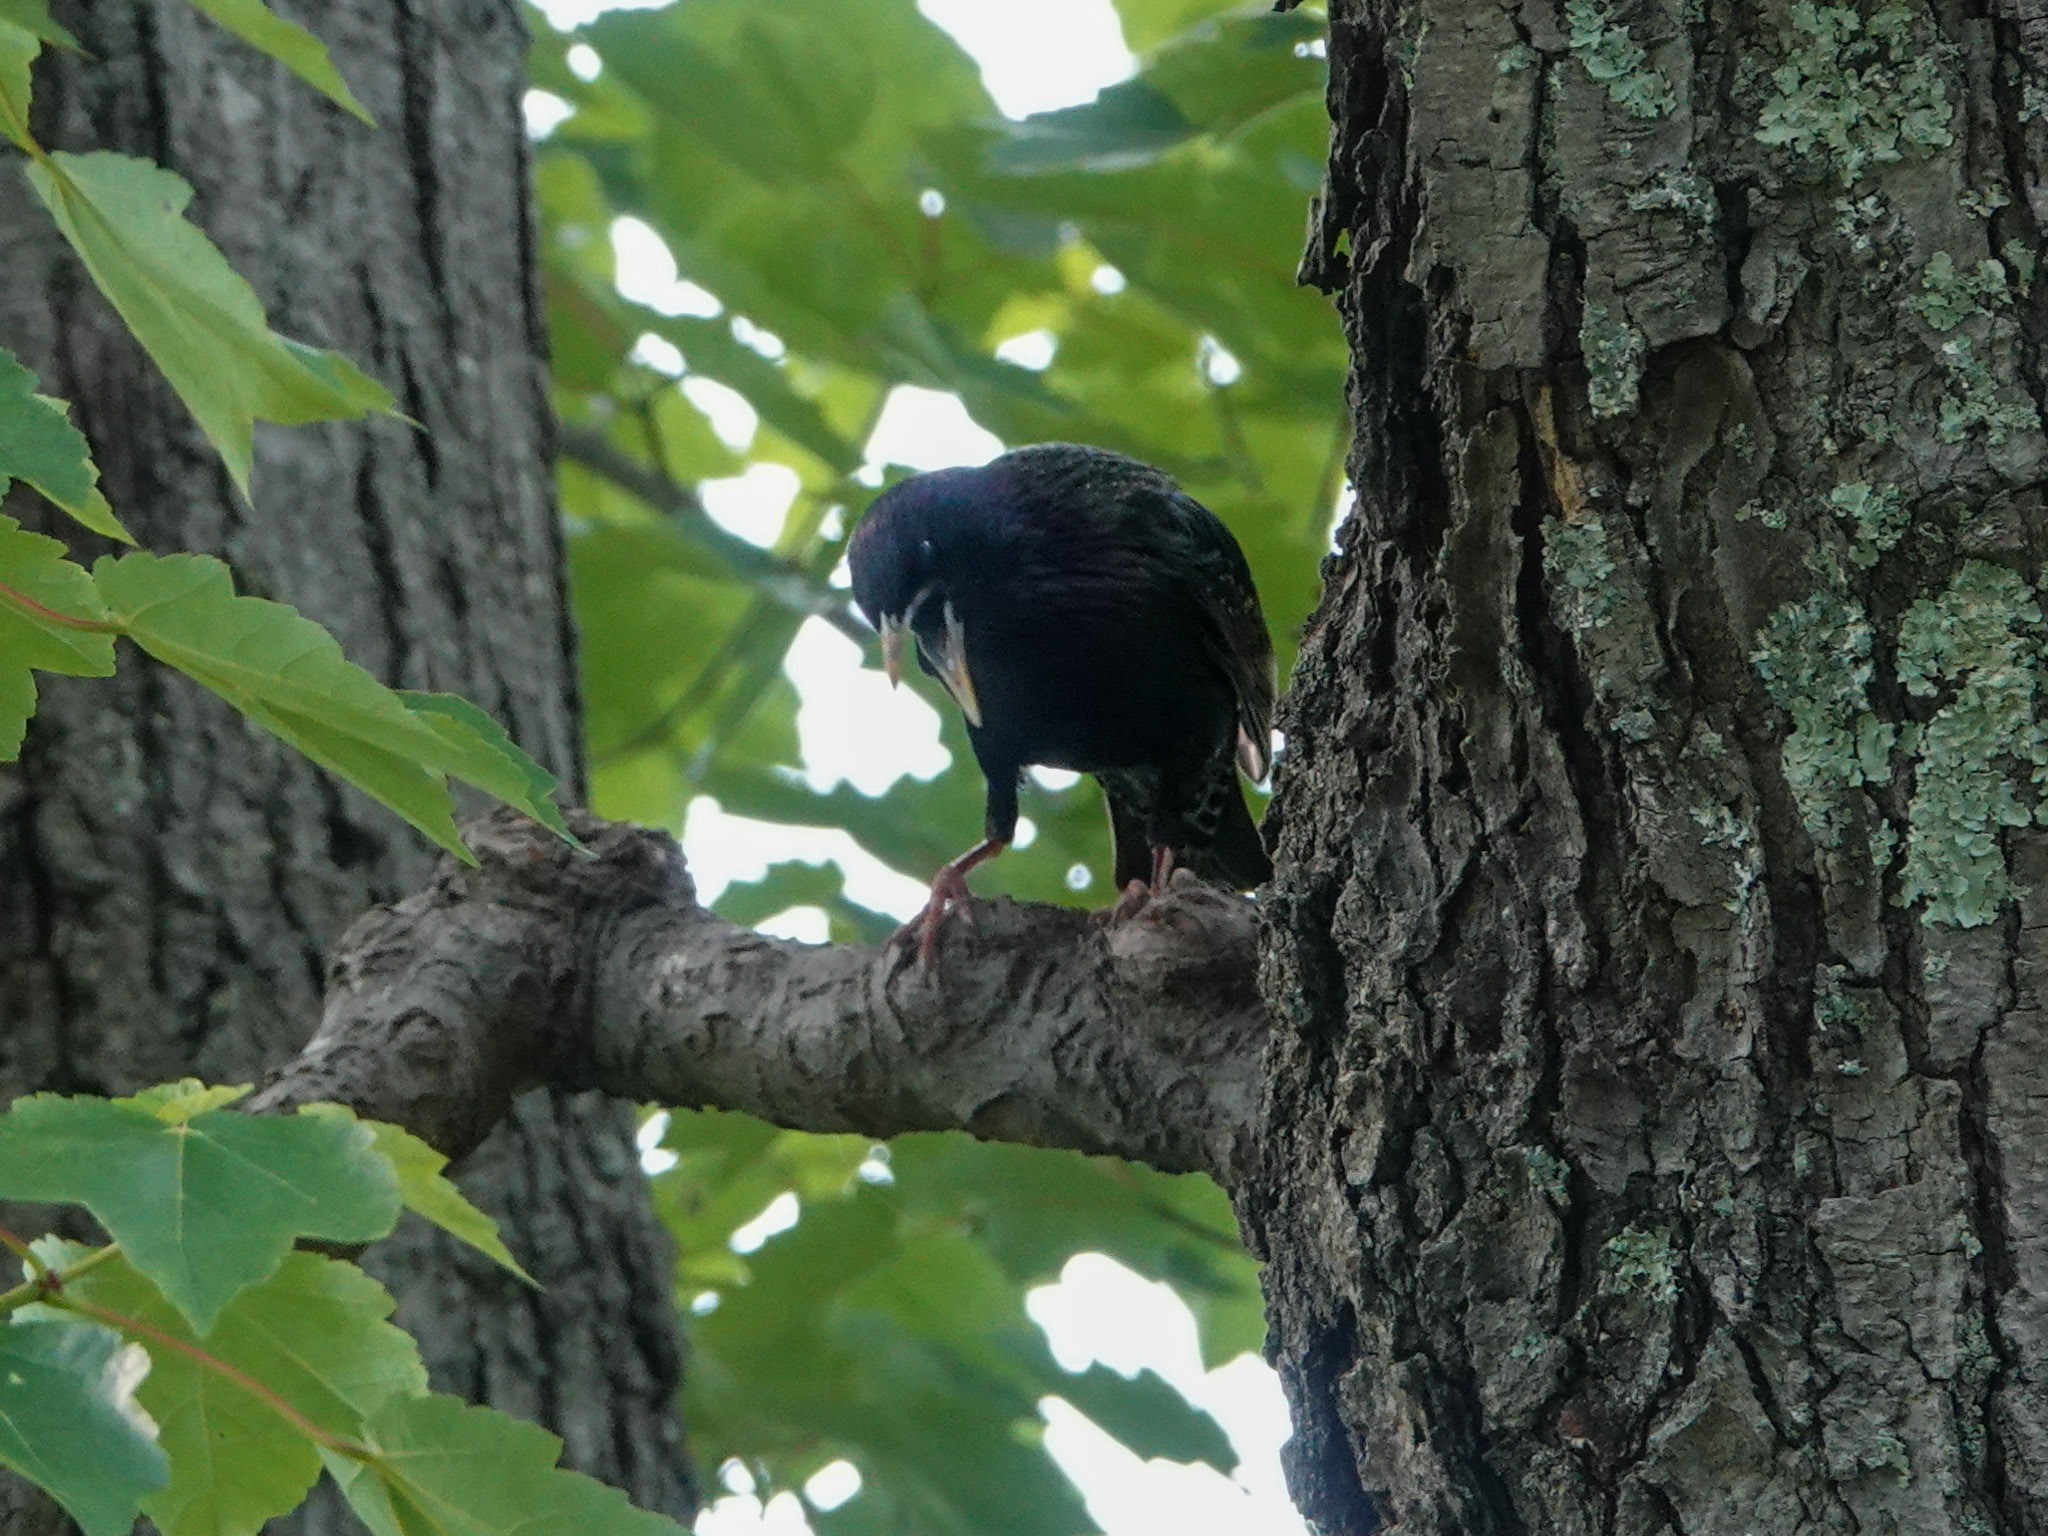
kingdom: Animalia
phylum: Chordata
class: Aves
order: Passeriformes
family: Sturnidae
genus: Sturnus
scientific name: Sturnus vulgaris
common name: Common starling
